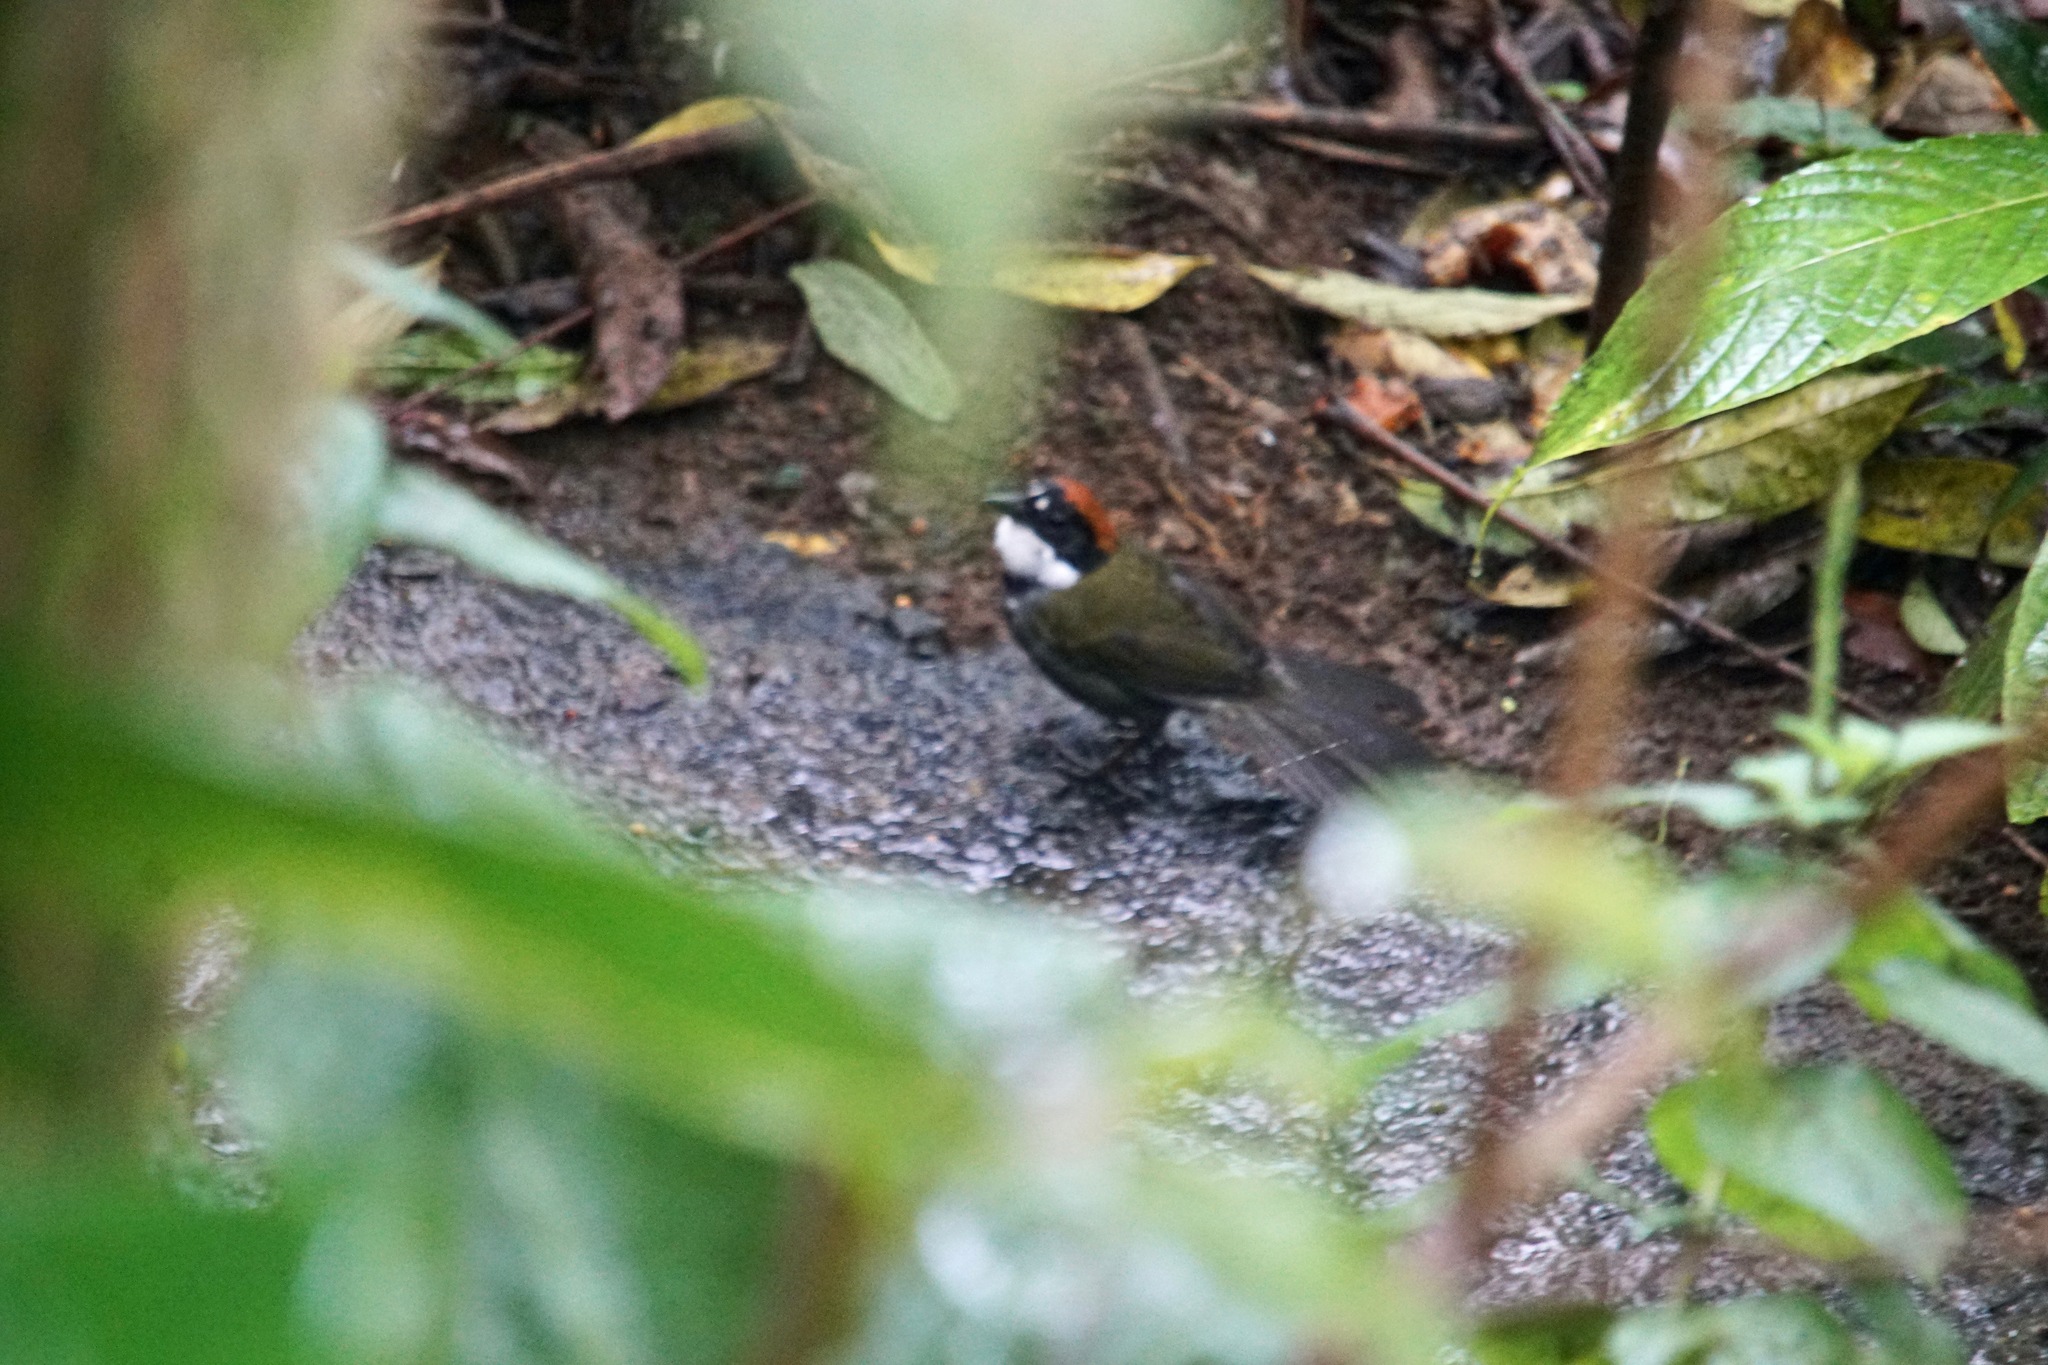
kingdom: Animalia
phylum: Chordata
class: Aves
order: Passeriformes
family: Passerellidae
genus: Arremon
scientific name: Arremon brunneinucha
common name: Chestnut-capped brushfinch
